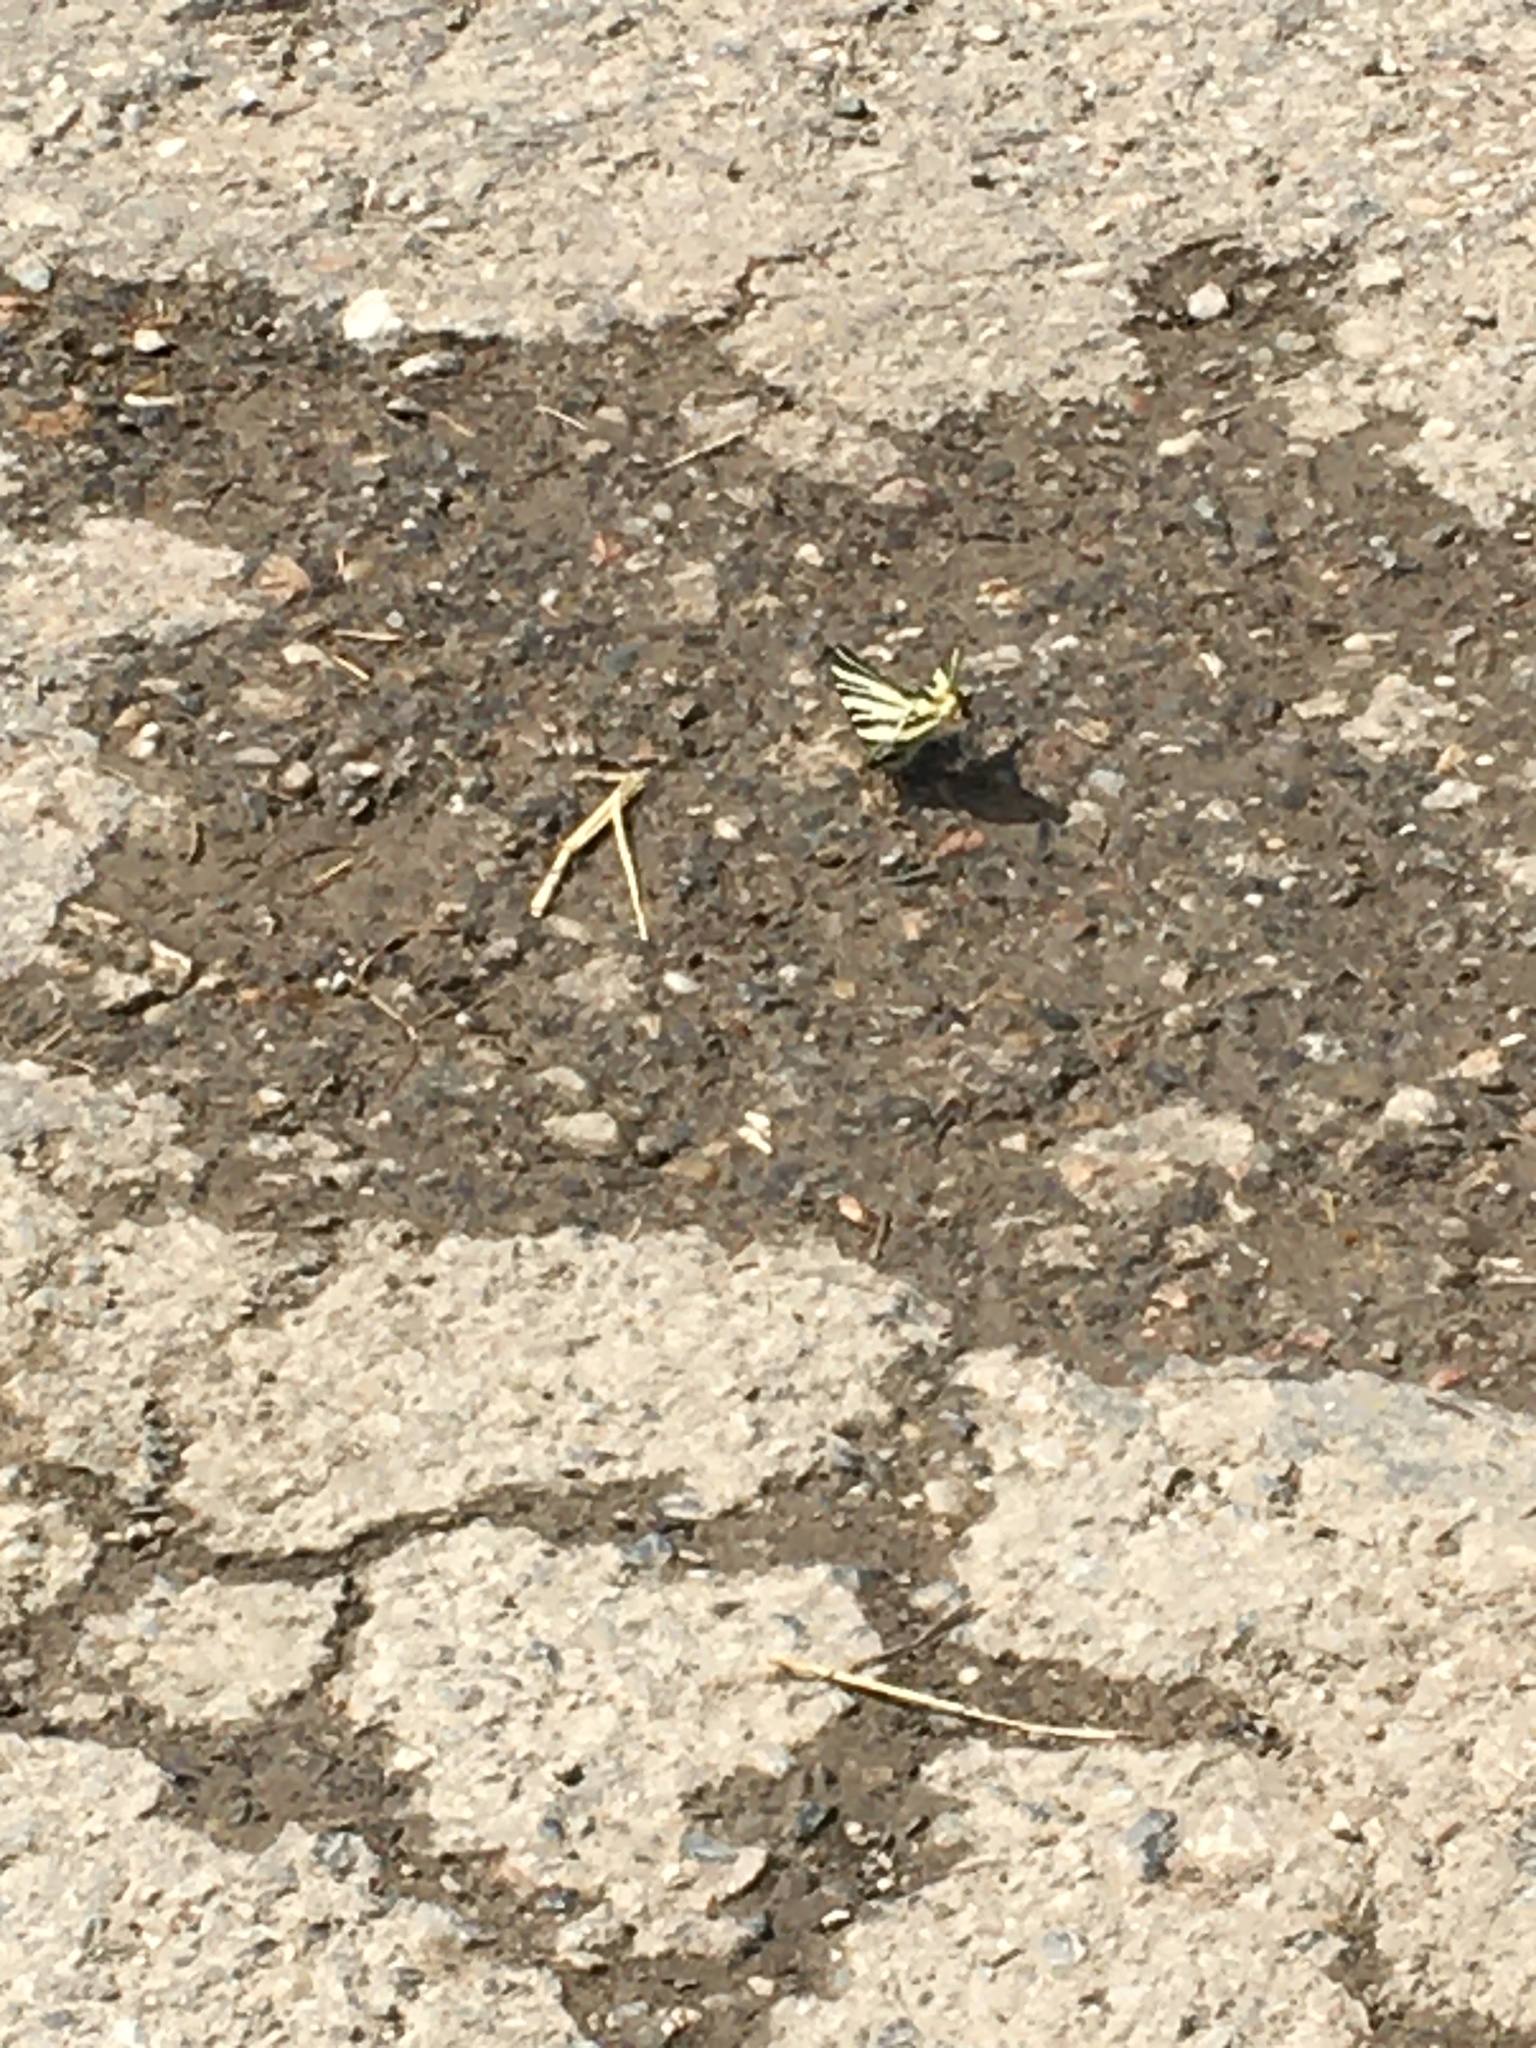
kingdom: Animalia
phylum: Arthropoda
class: Insecta
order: Lepidoptera
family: Papilionidae
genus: Iphiclides
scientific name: Iphiclides podalirius
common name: Scarce swallowtail
